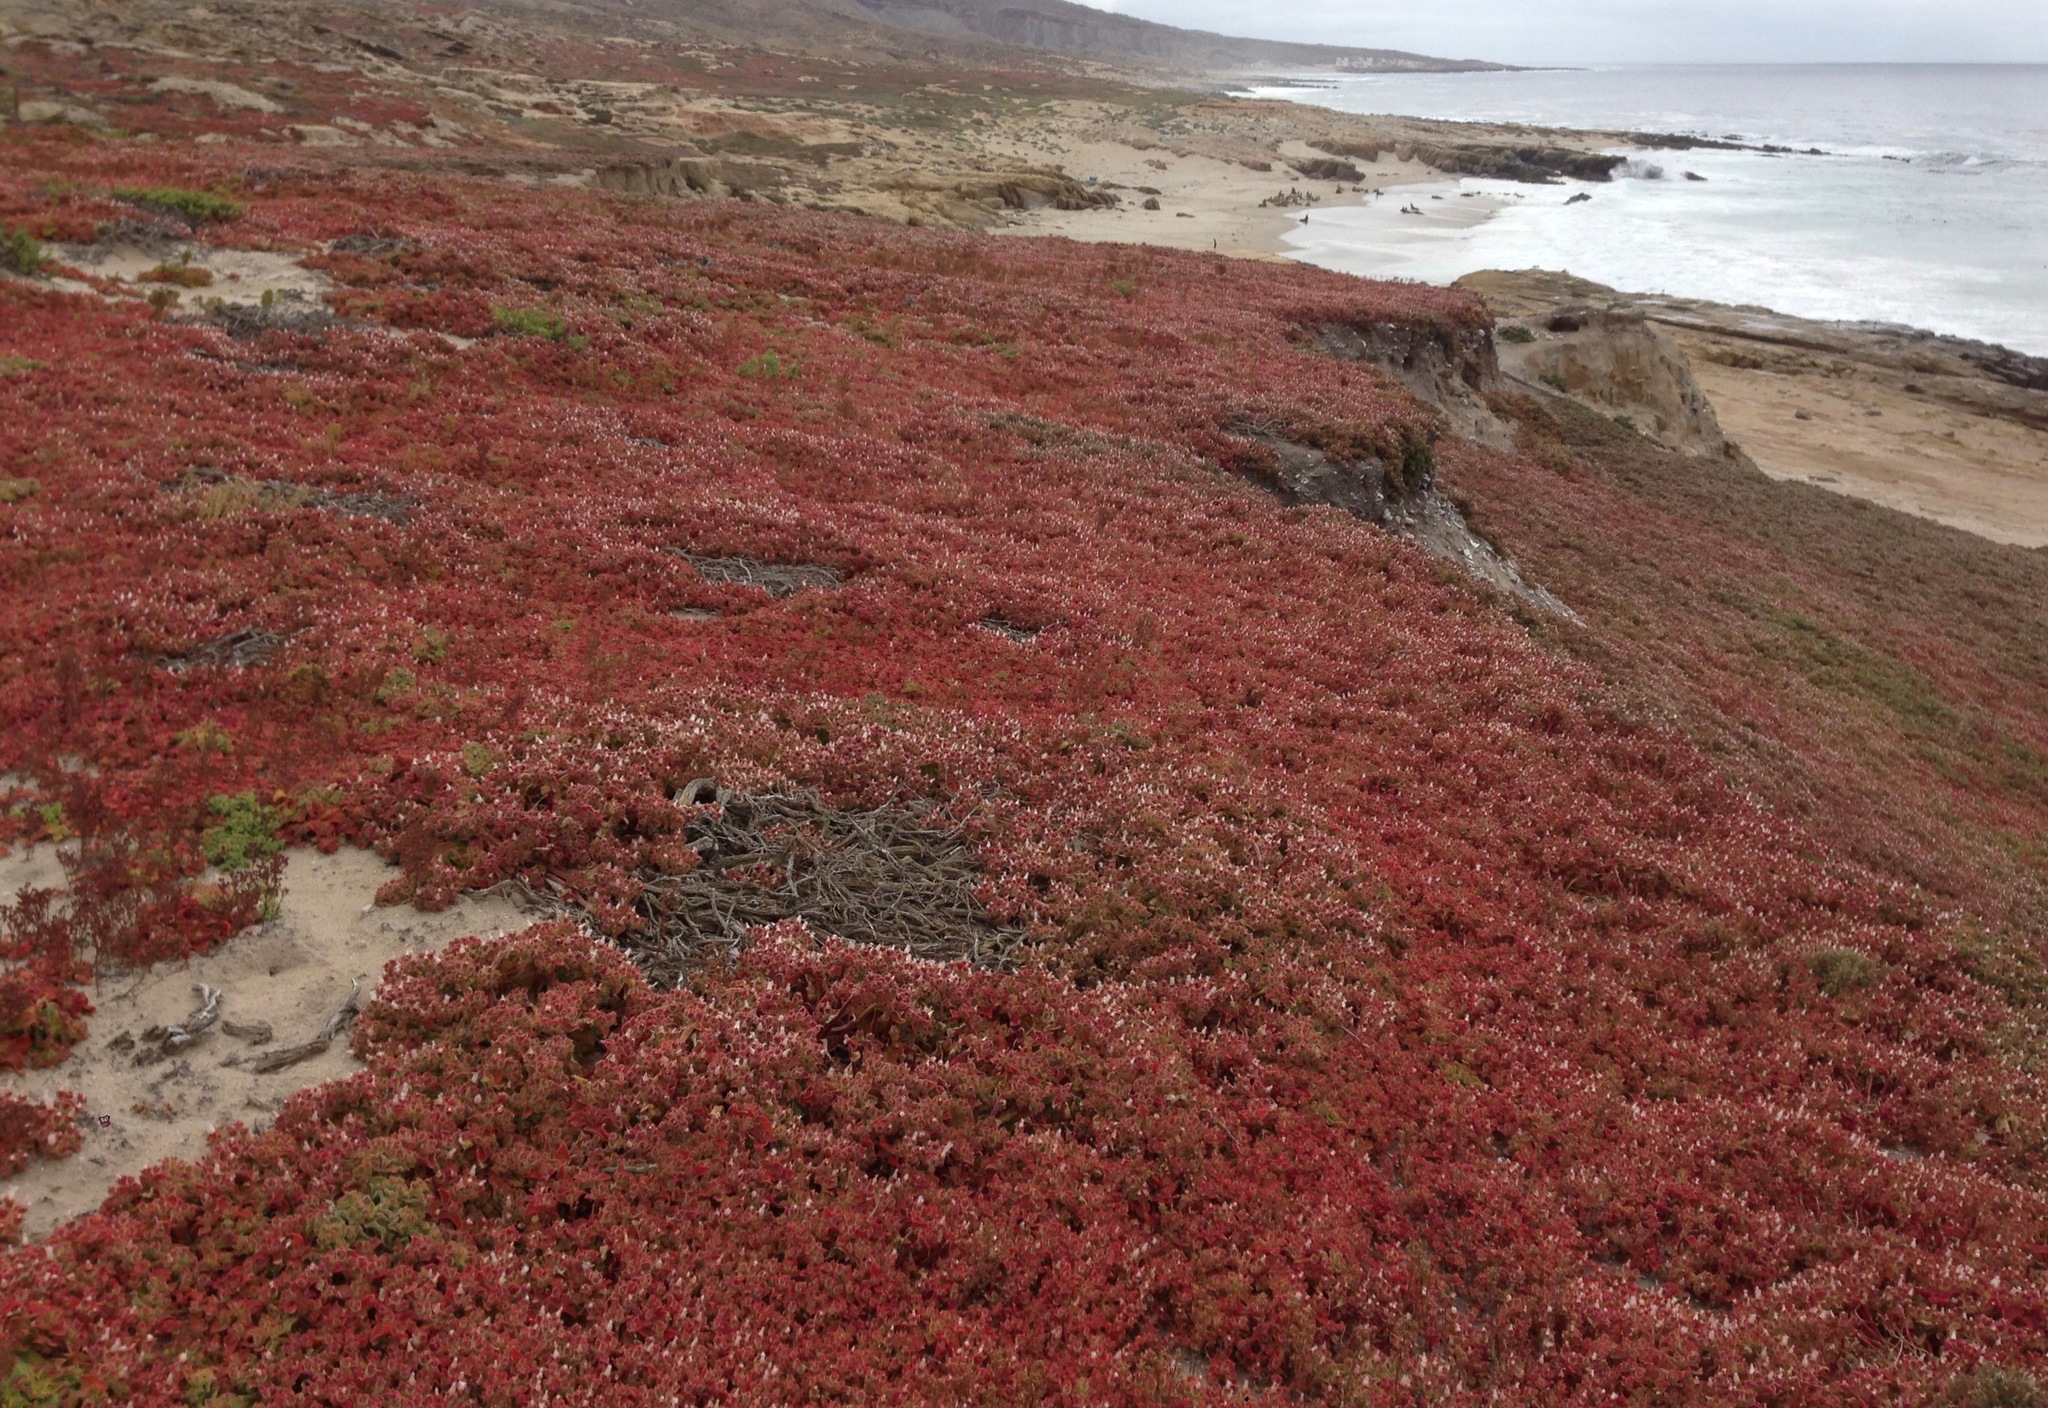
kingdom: Plantae
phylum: Tracheophyta
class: Magnoliopsida
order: Caryophyllales
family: Aizoaceae
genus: Mesembryanthemum
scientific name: Mesembryanthemum crystallinum
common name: Common iceplant
